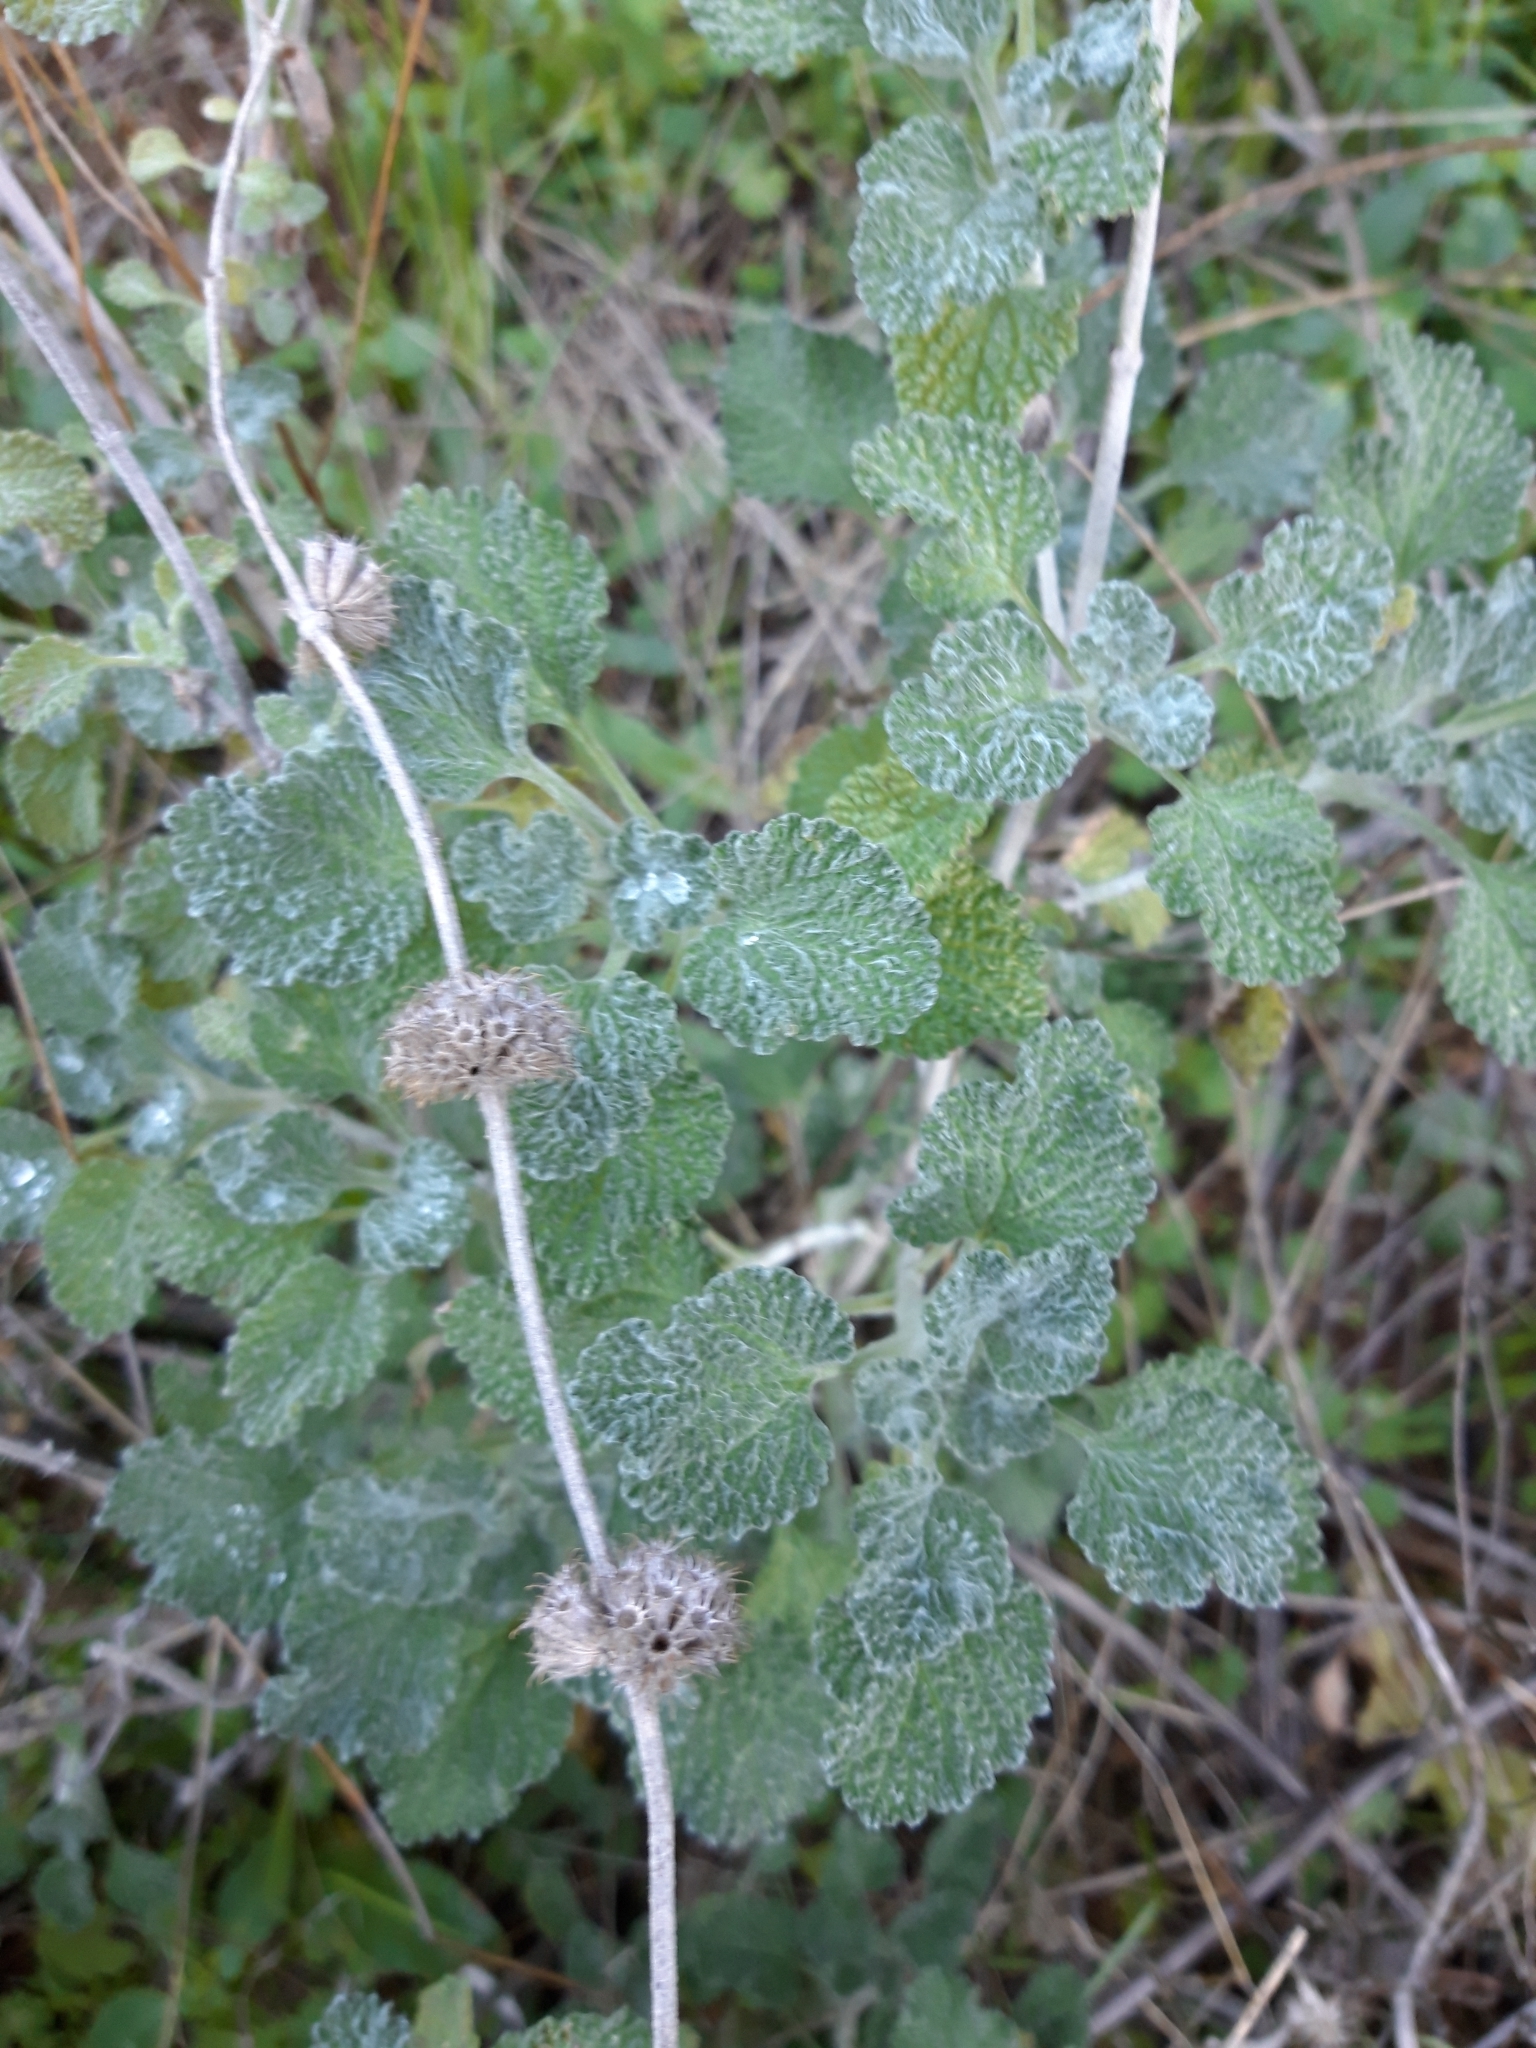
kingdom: Plantae
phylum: Tracheophyta
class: Magnoliopsida
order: Lamiales
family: Lamiaceae
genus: Marrubium
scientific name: Marrubium vulgare
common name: Horehound
